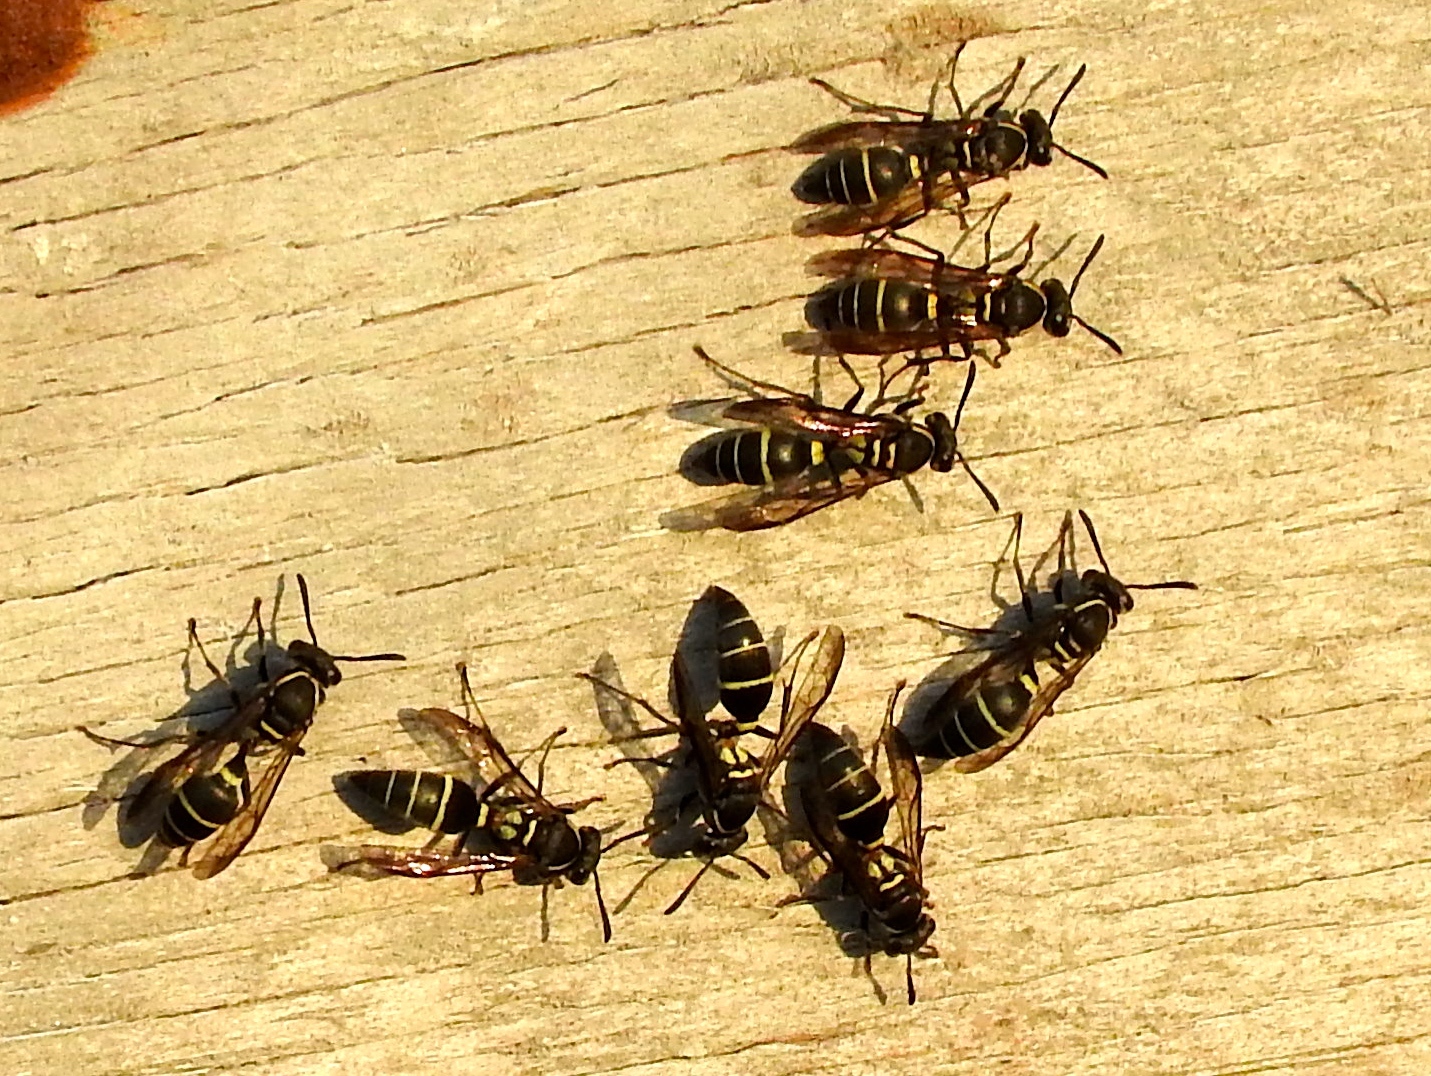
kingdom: Animalia
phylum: Arthropoda
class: Insecta
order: Hymenoptera
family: Vespidae
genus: Myrapetra
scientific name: Myrapetra
